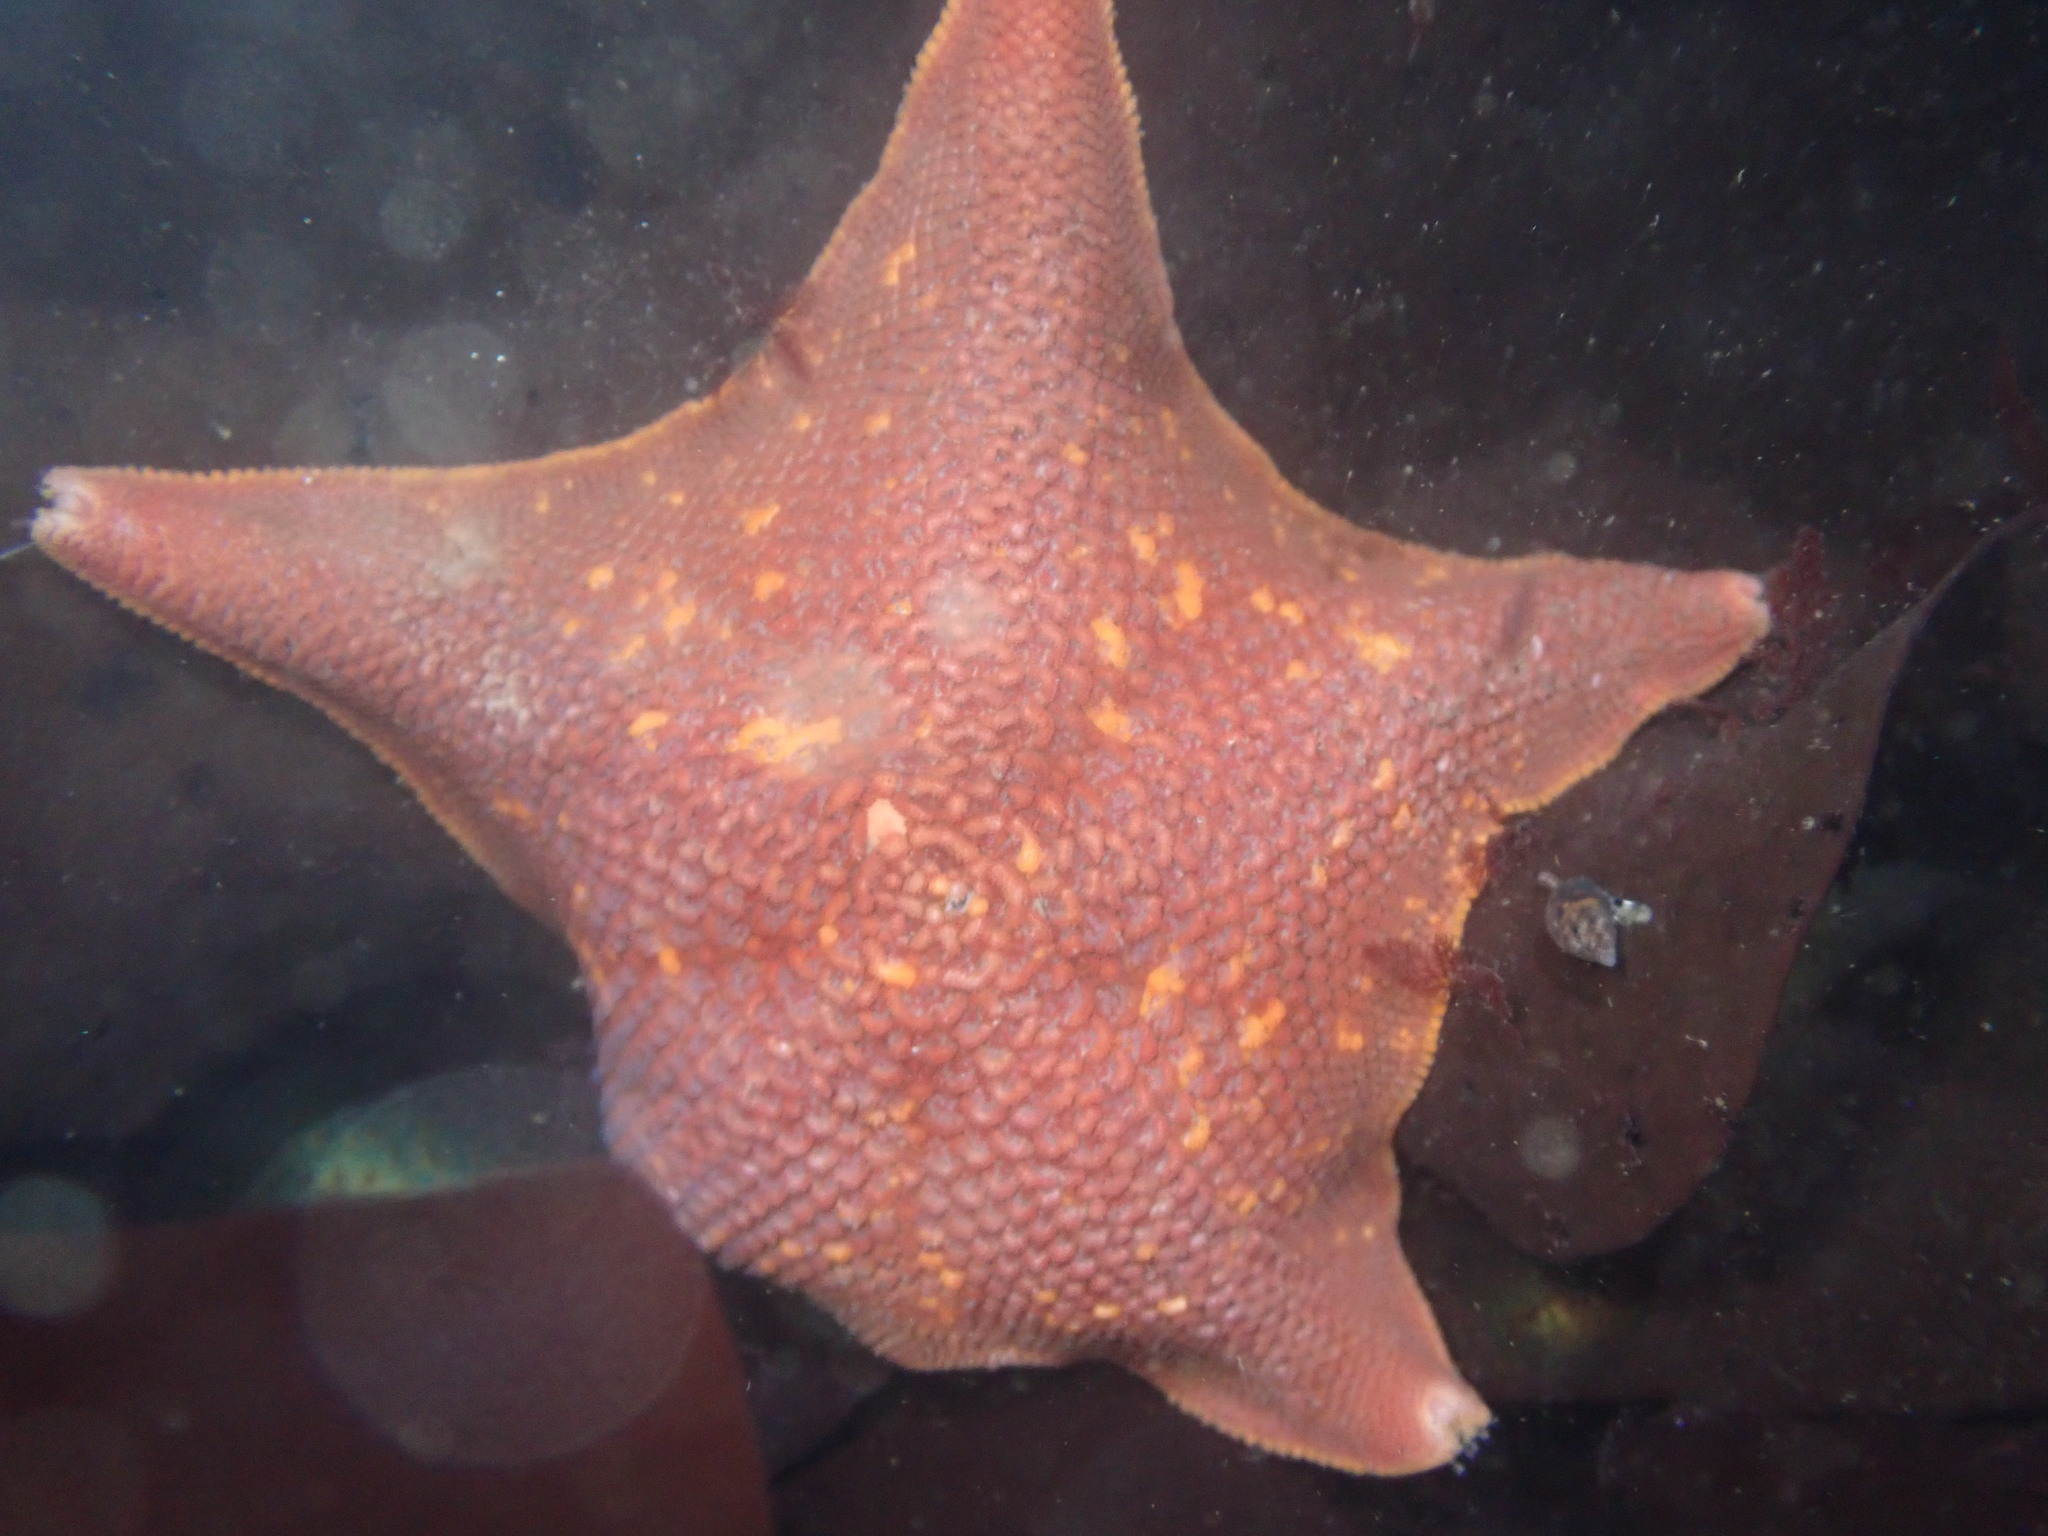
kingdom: Animalia
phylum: Echinodermata
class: Asteroidea
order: Valvatida
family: Asterinidae
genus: Patiria
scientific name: Patiria miniata
